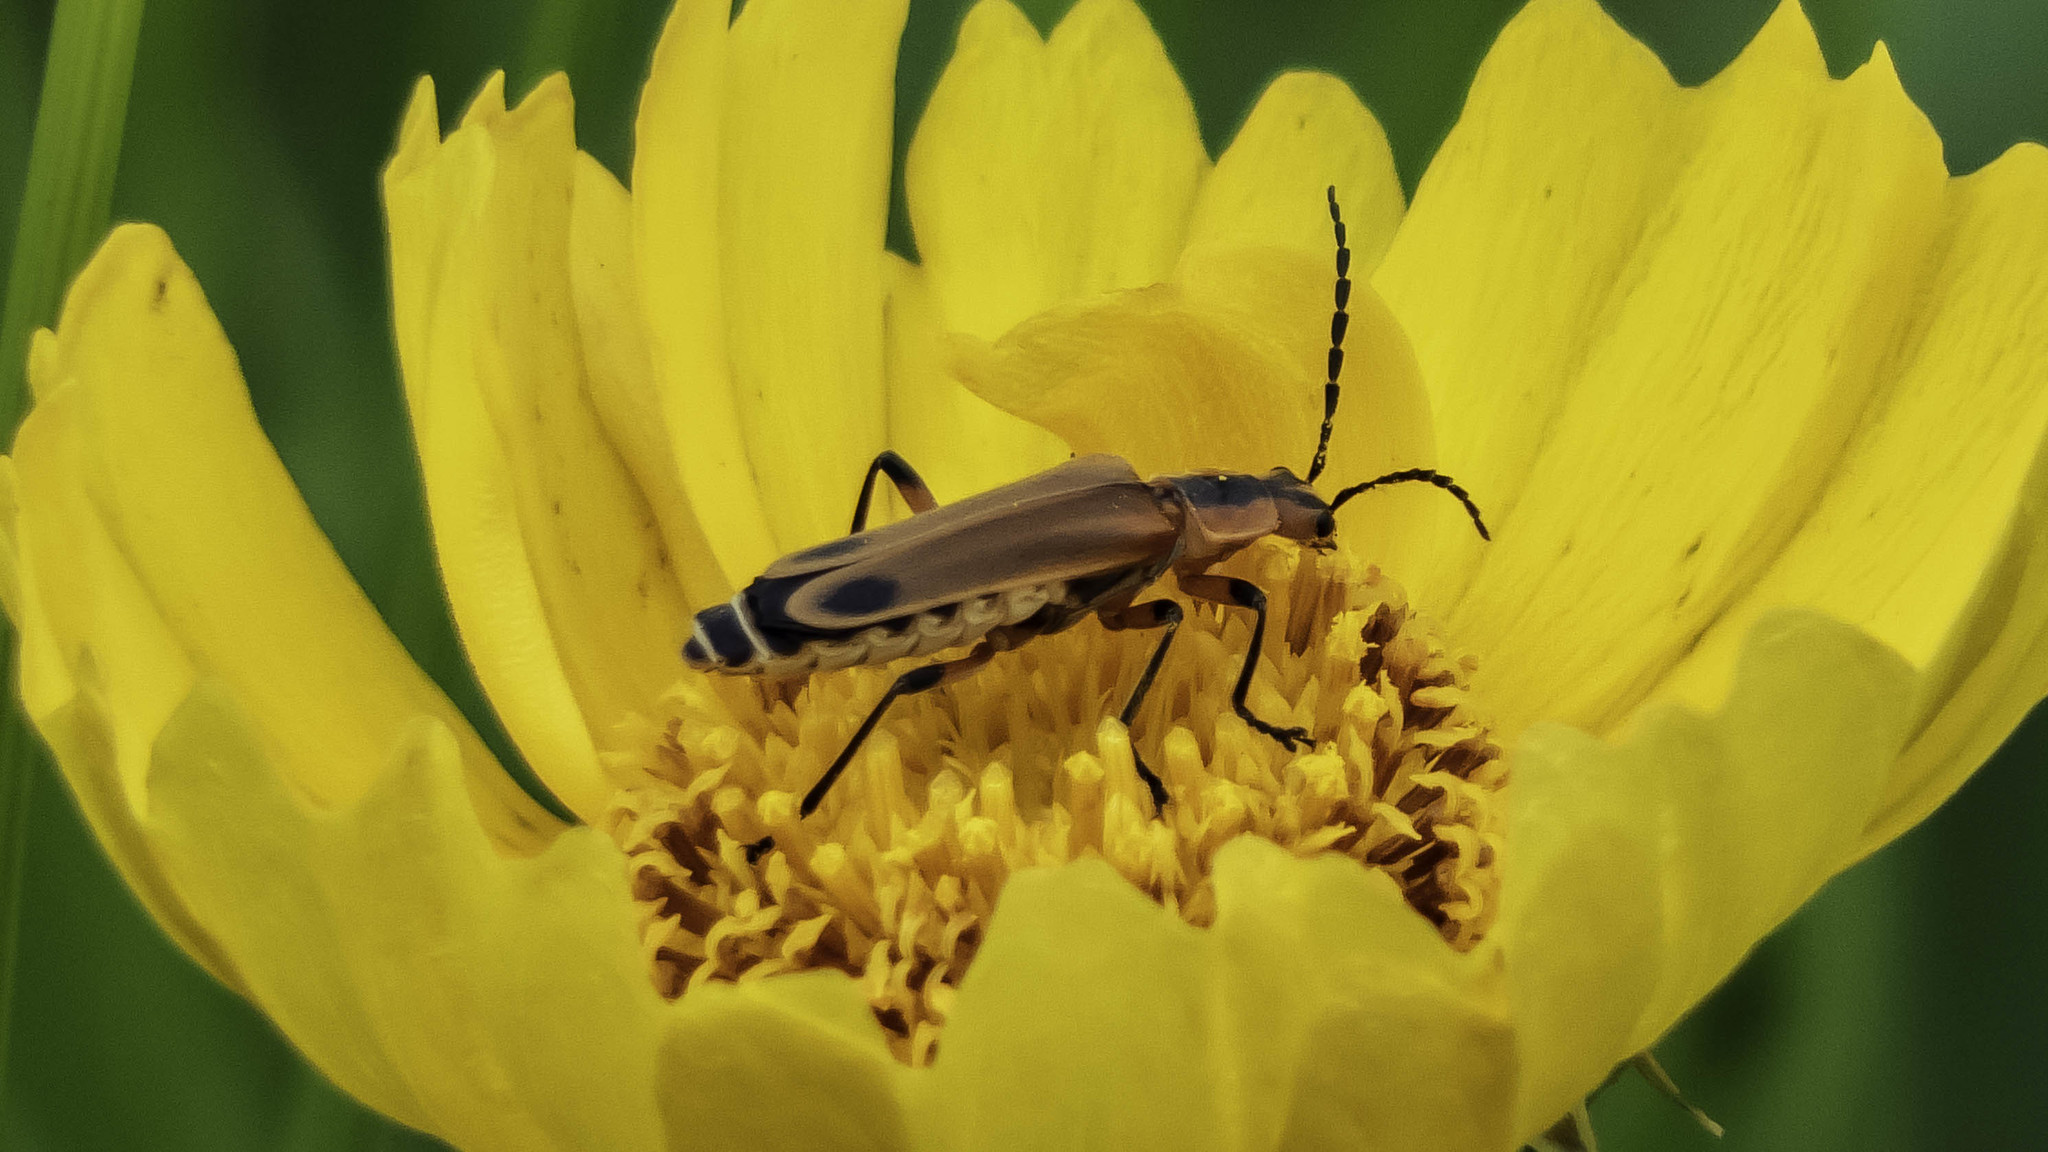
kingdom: Animalia
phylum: Arthropoda
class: Insecta
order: Coleoptera
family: Cantharidae
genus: Chauliognathus
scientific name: Chauliognathus marginatus
